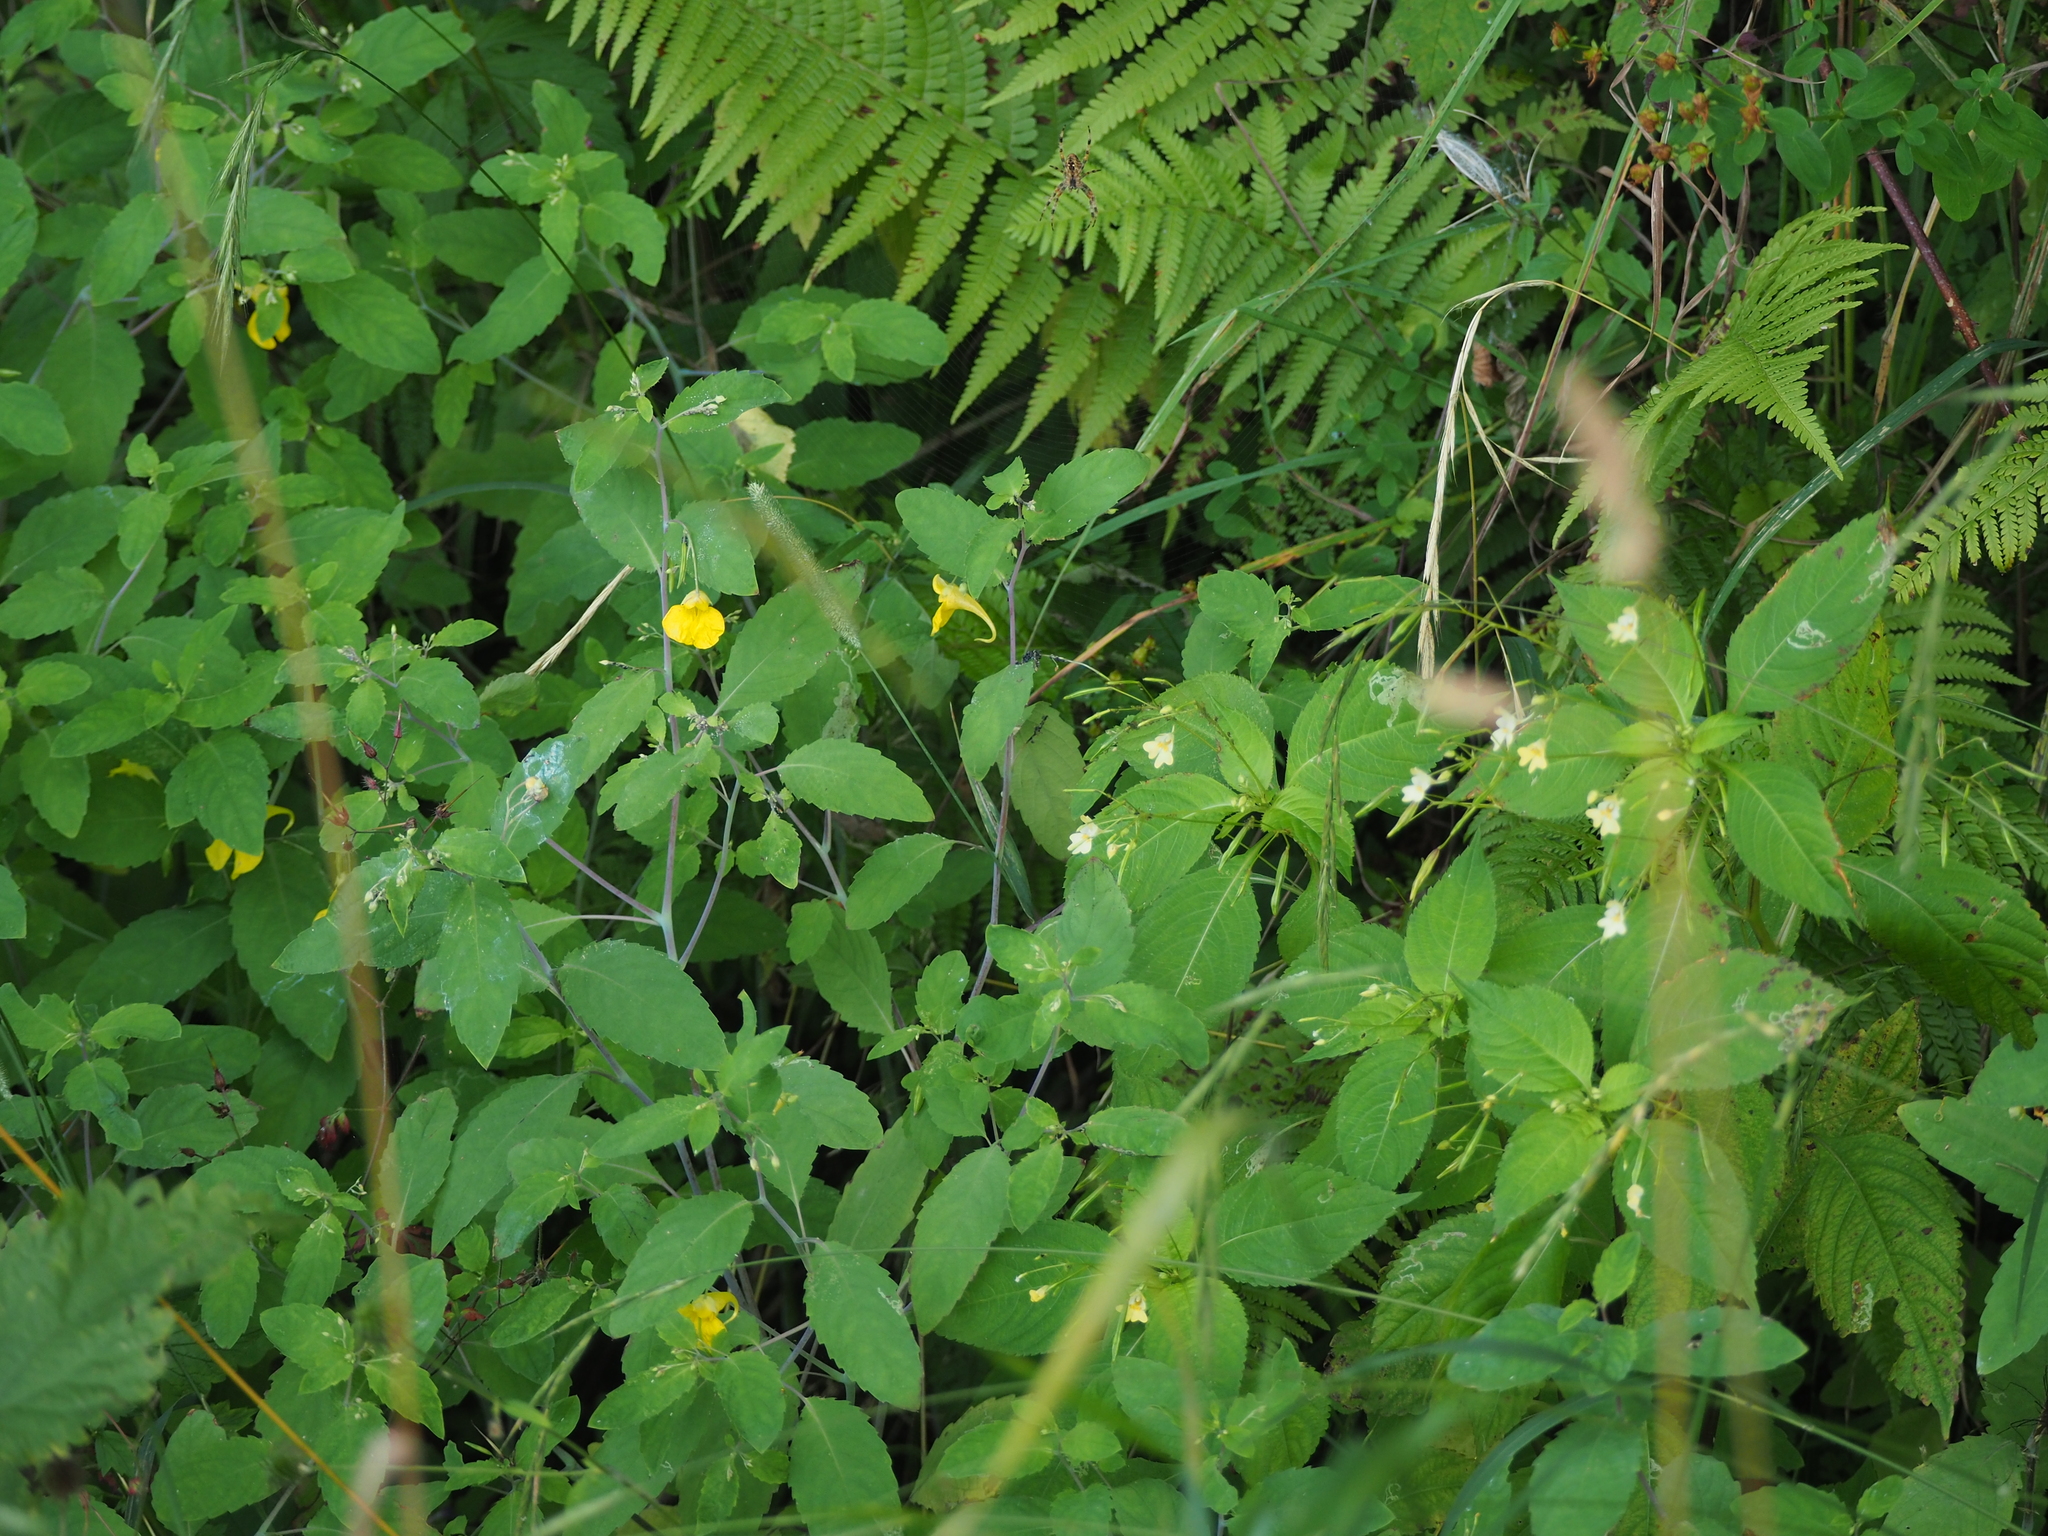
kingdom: Plantae
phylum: Tracheophyta
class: Magnoliopsida
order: Ericales
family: Balsaminaceae
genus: Impatiens
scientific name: Impatiens parviflora
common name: Small balsam
